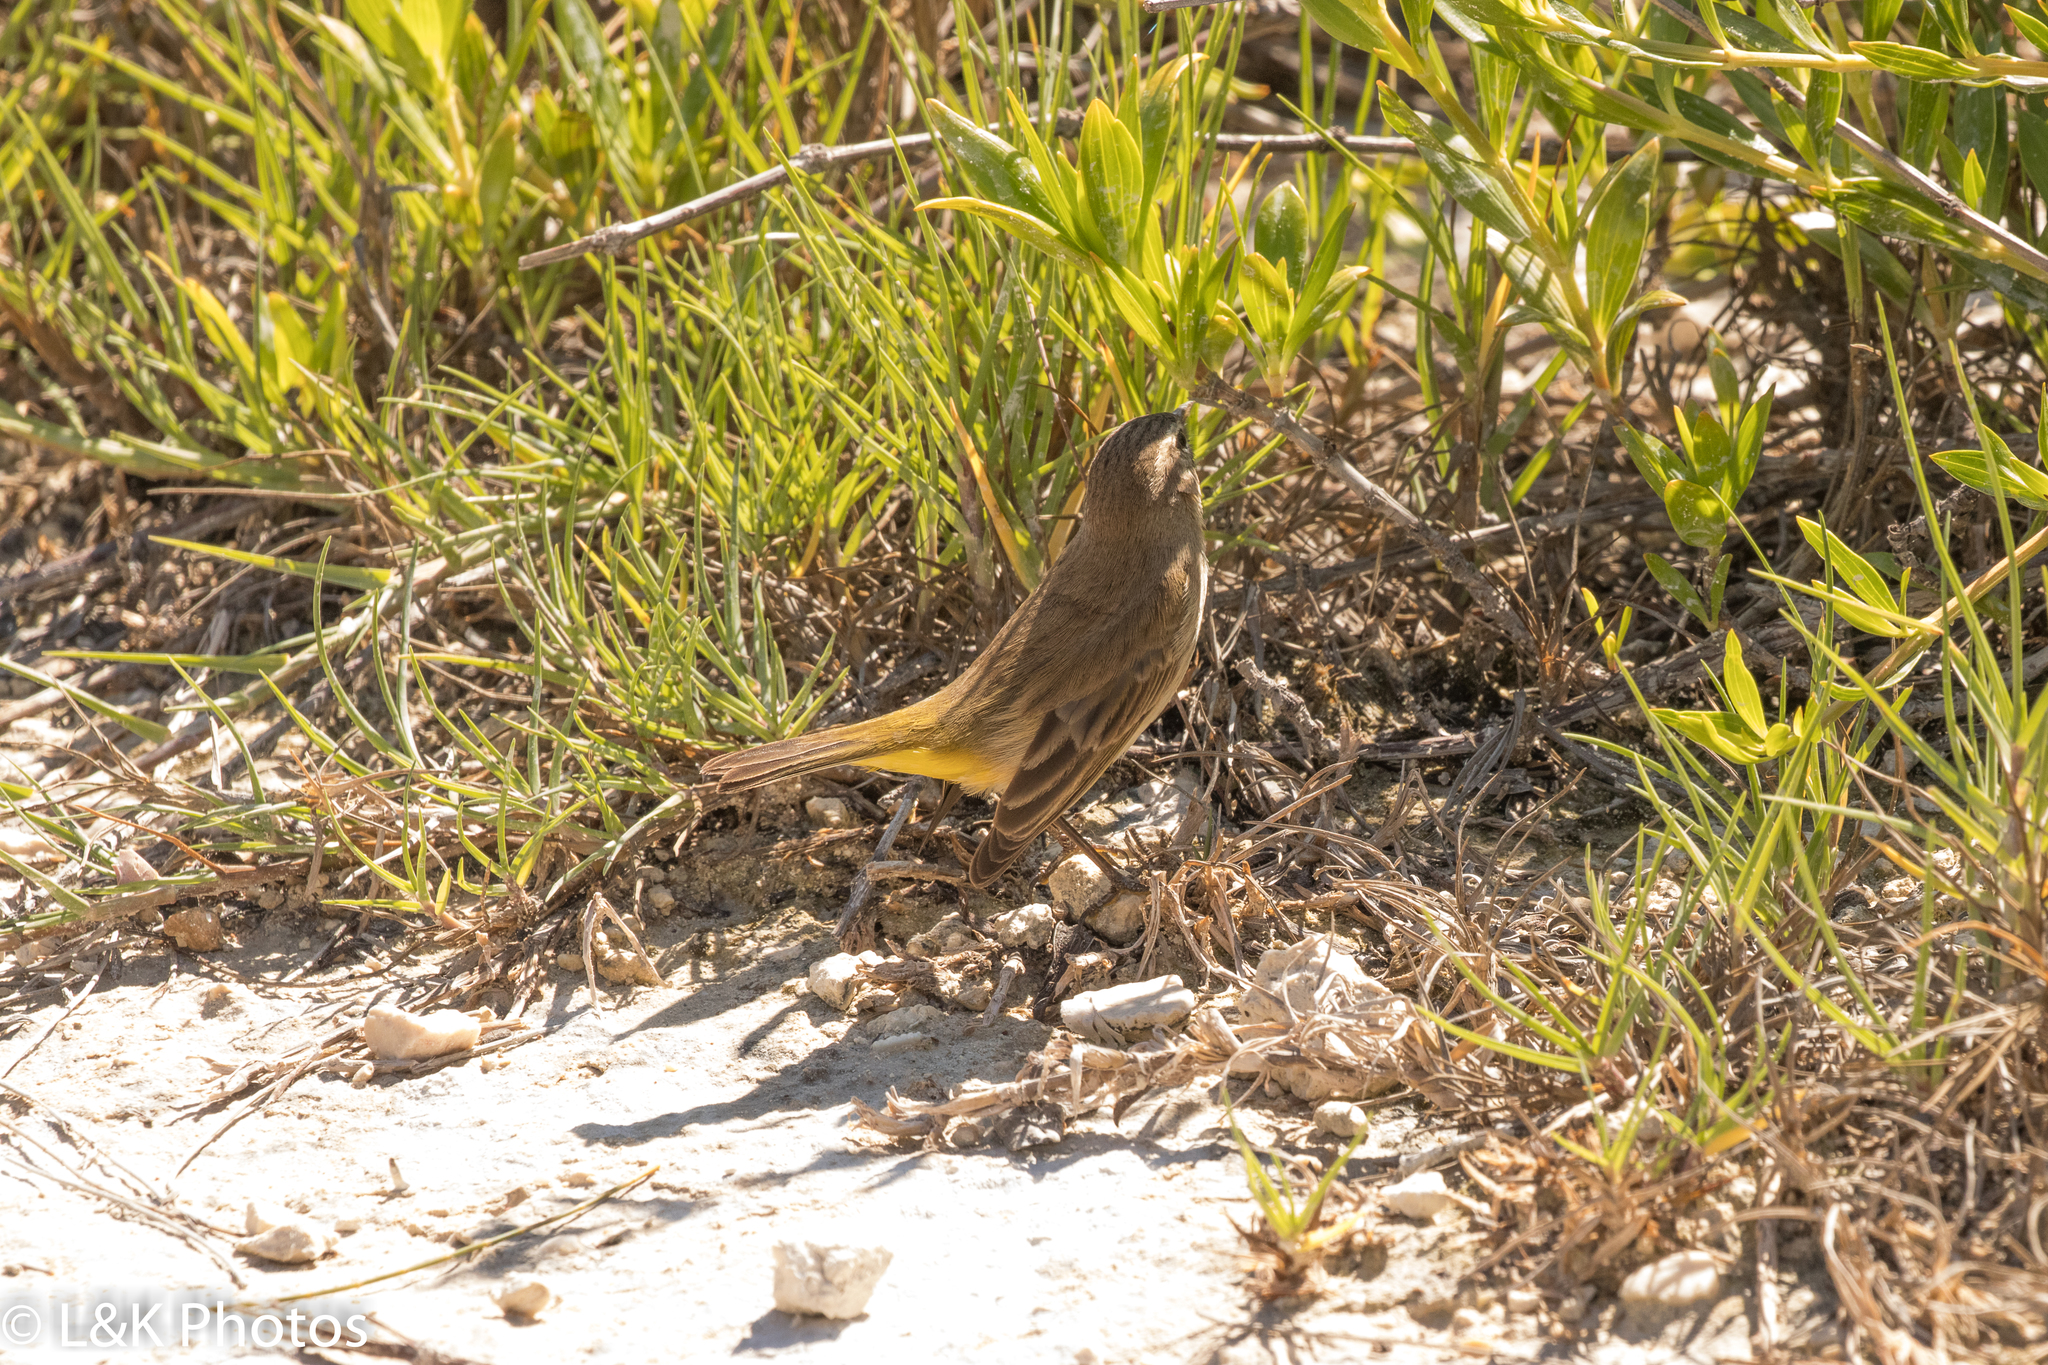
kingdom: Animalia
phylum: Chordata
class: Aves
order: Passeriformes
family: Parulidae
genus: Setophaga
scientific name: Setophaga palmarum
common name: Palm warbler
